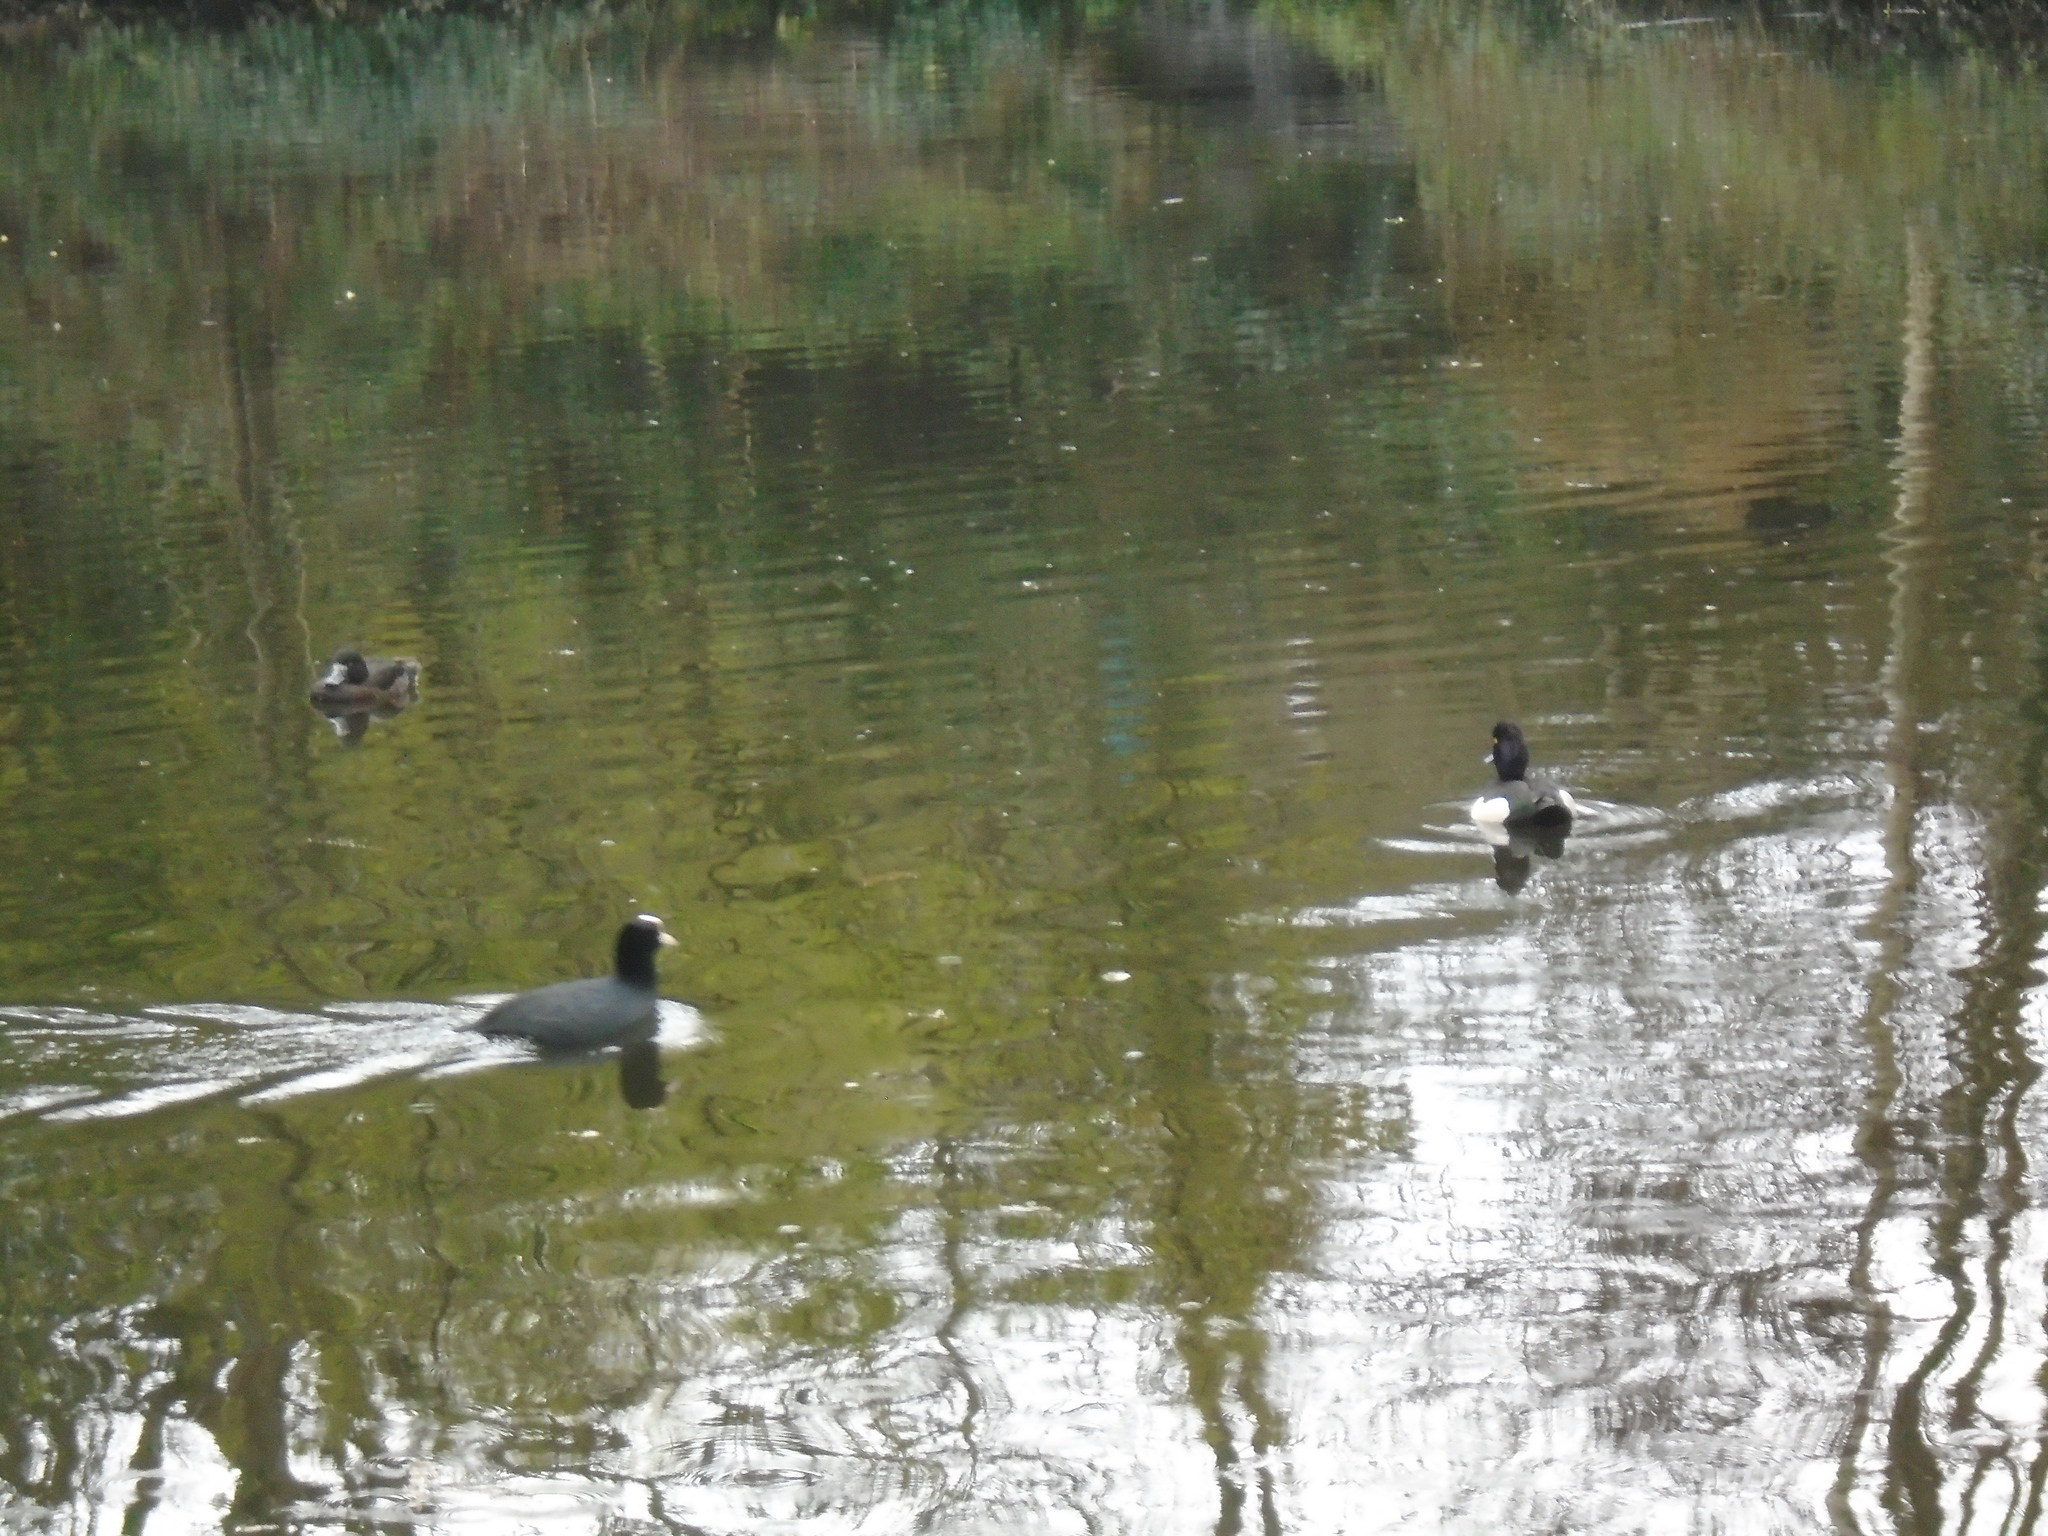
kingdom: Animalia
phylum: Chordata
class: Aves
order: Anseriformes
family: Anatidae
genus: Aythya
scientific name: Aythya fuligula
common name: Tufted duck
